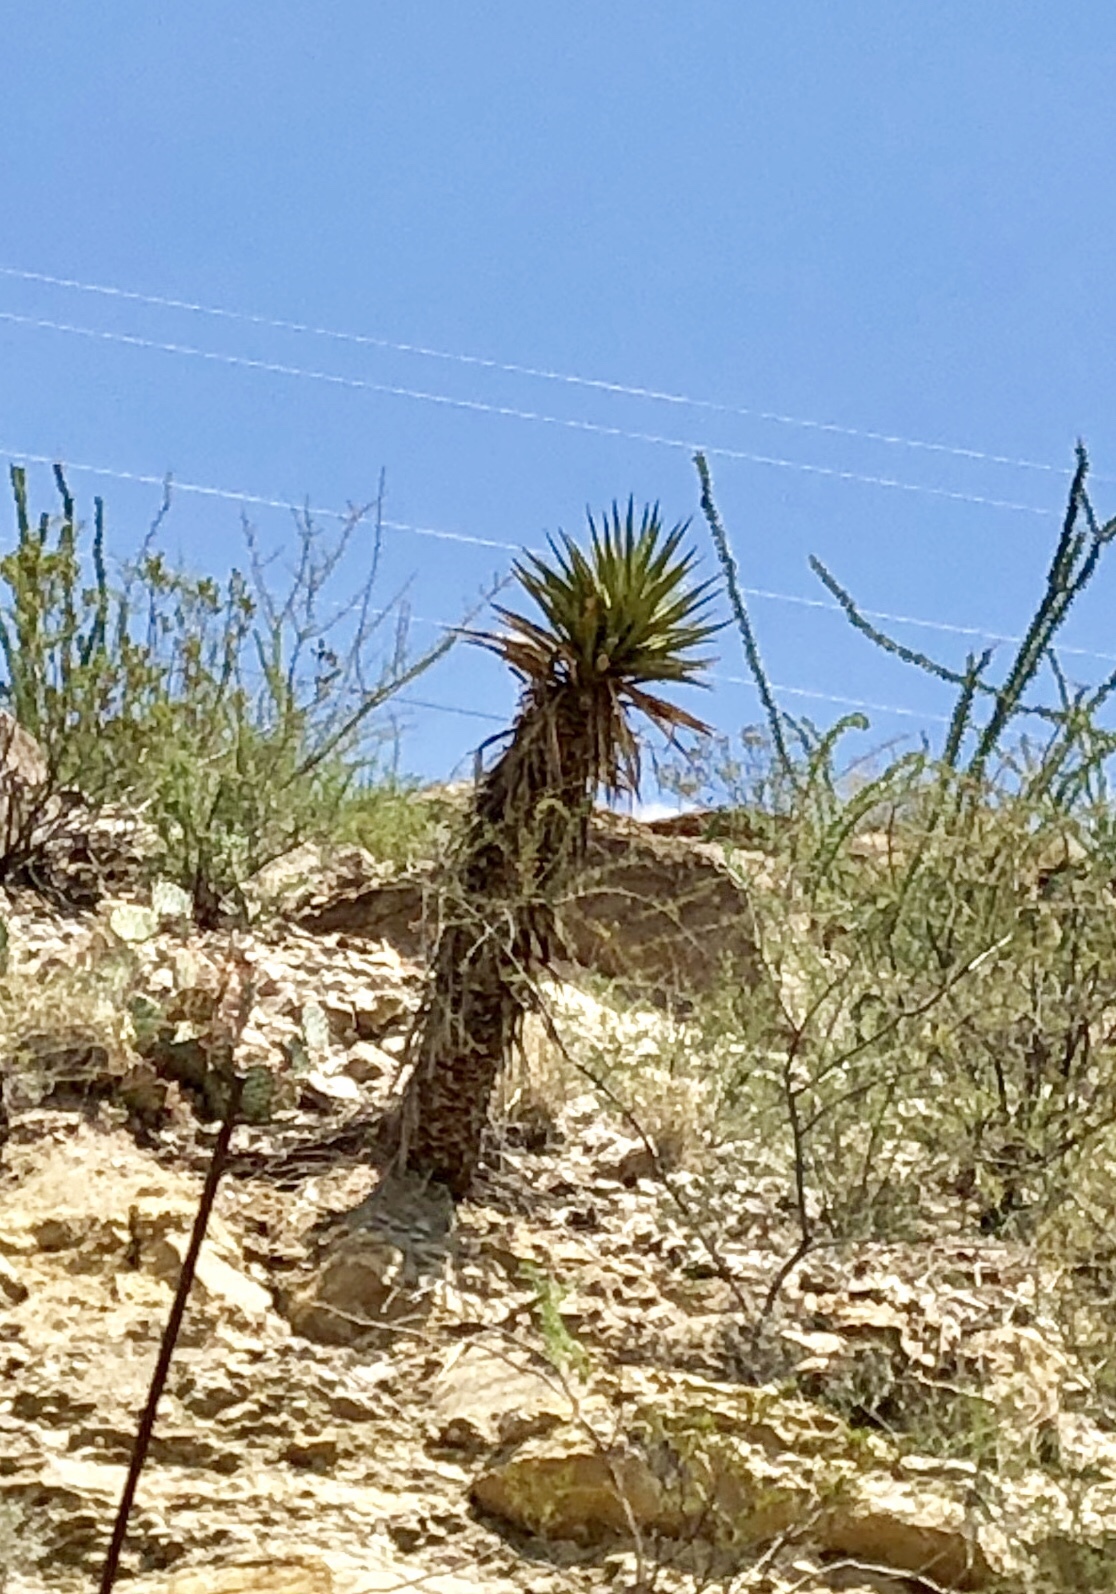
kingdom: Plantae
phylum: Tracheophyta
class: Liliopsida
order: Asparagales
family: Asparagaceae
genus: Yucca
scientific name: Yucca treculiana
